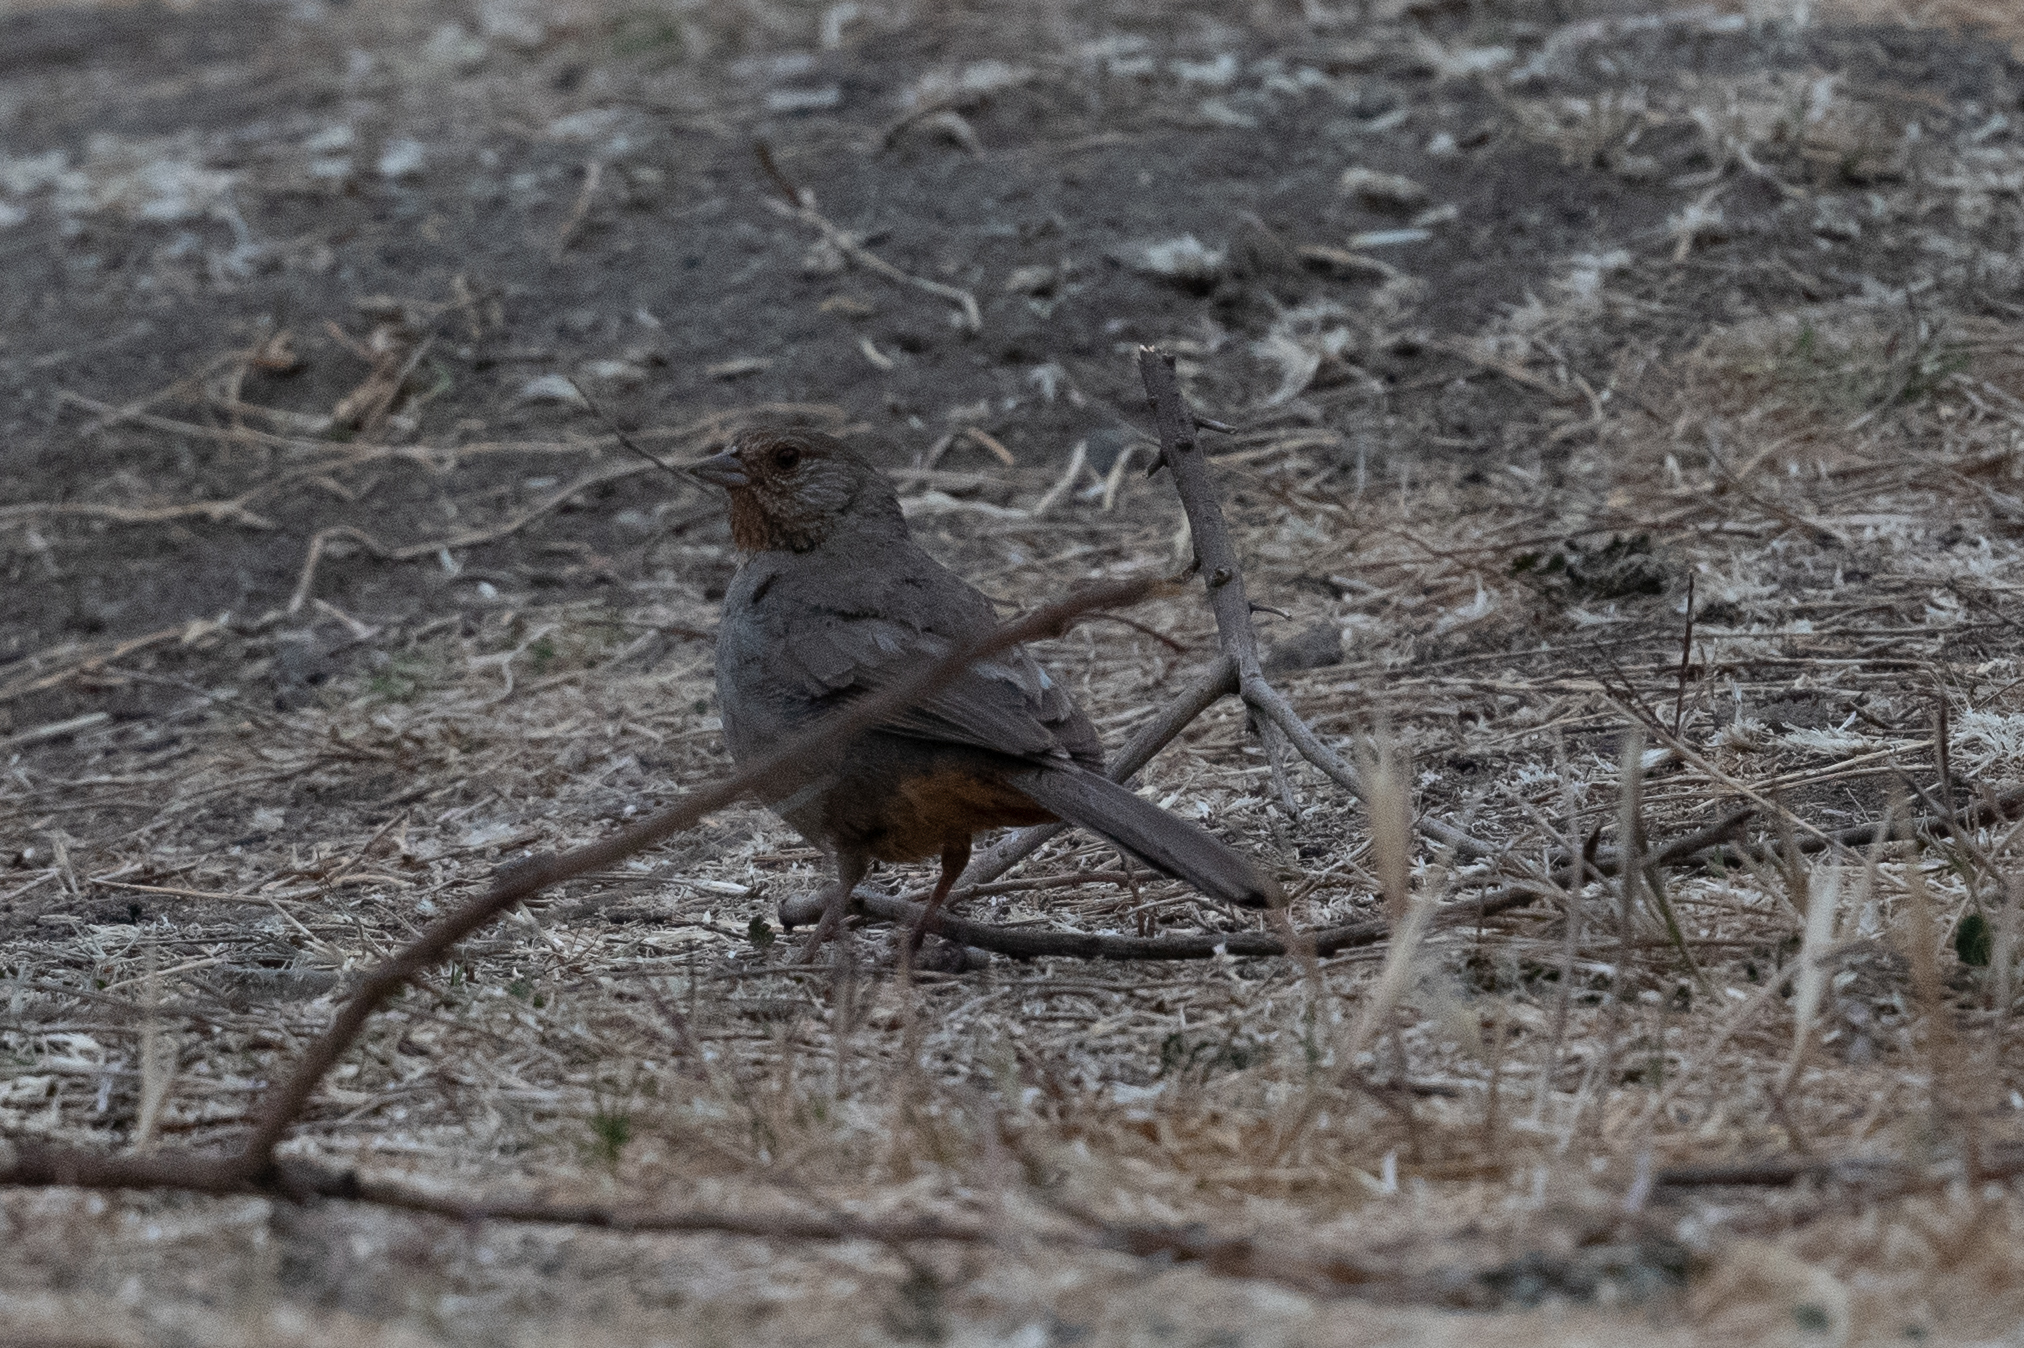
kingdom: Animalia
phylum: Chordata
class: Aves
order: Passeriformes
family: Passerellidae
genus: Melozone
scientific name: Melozone crissalis
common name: California towhee
